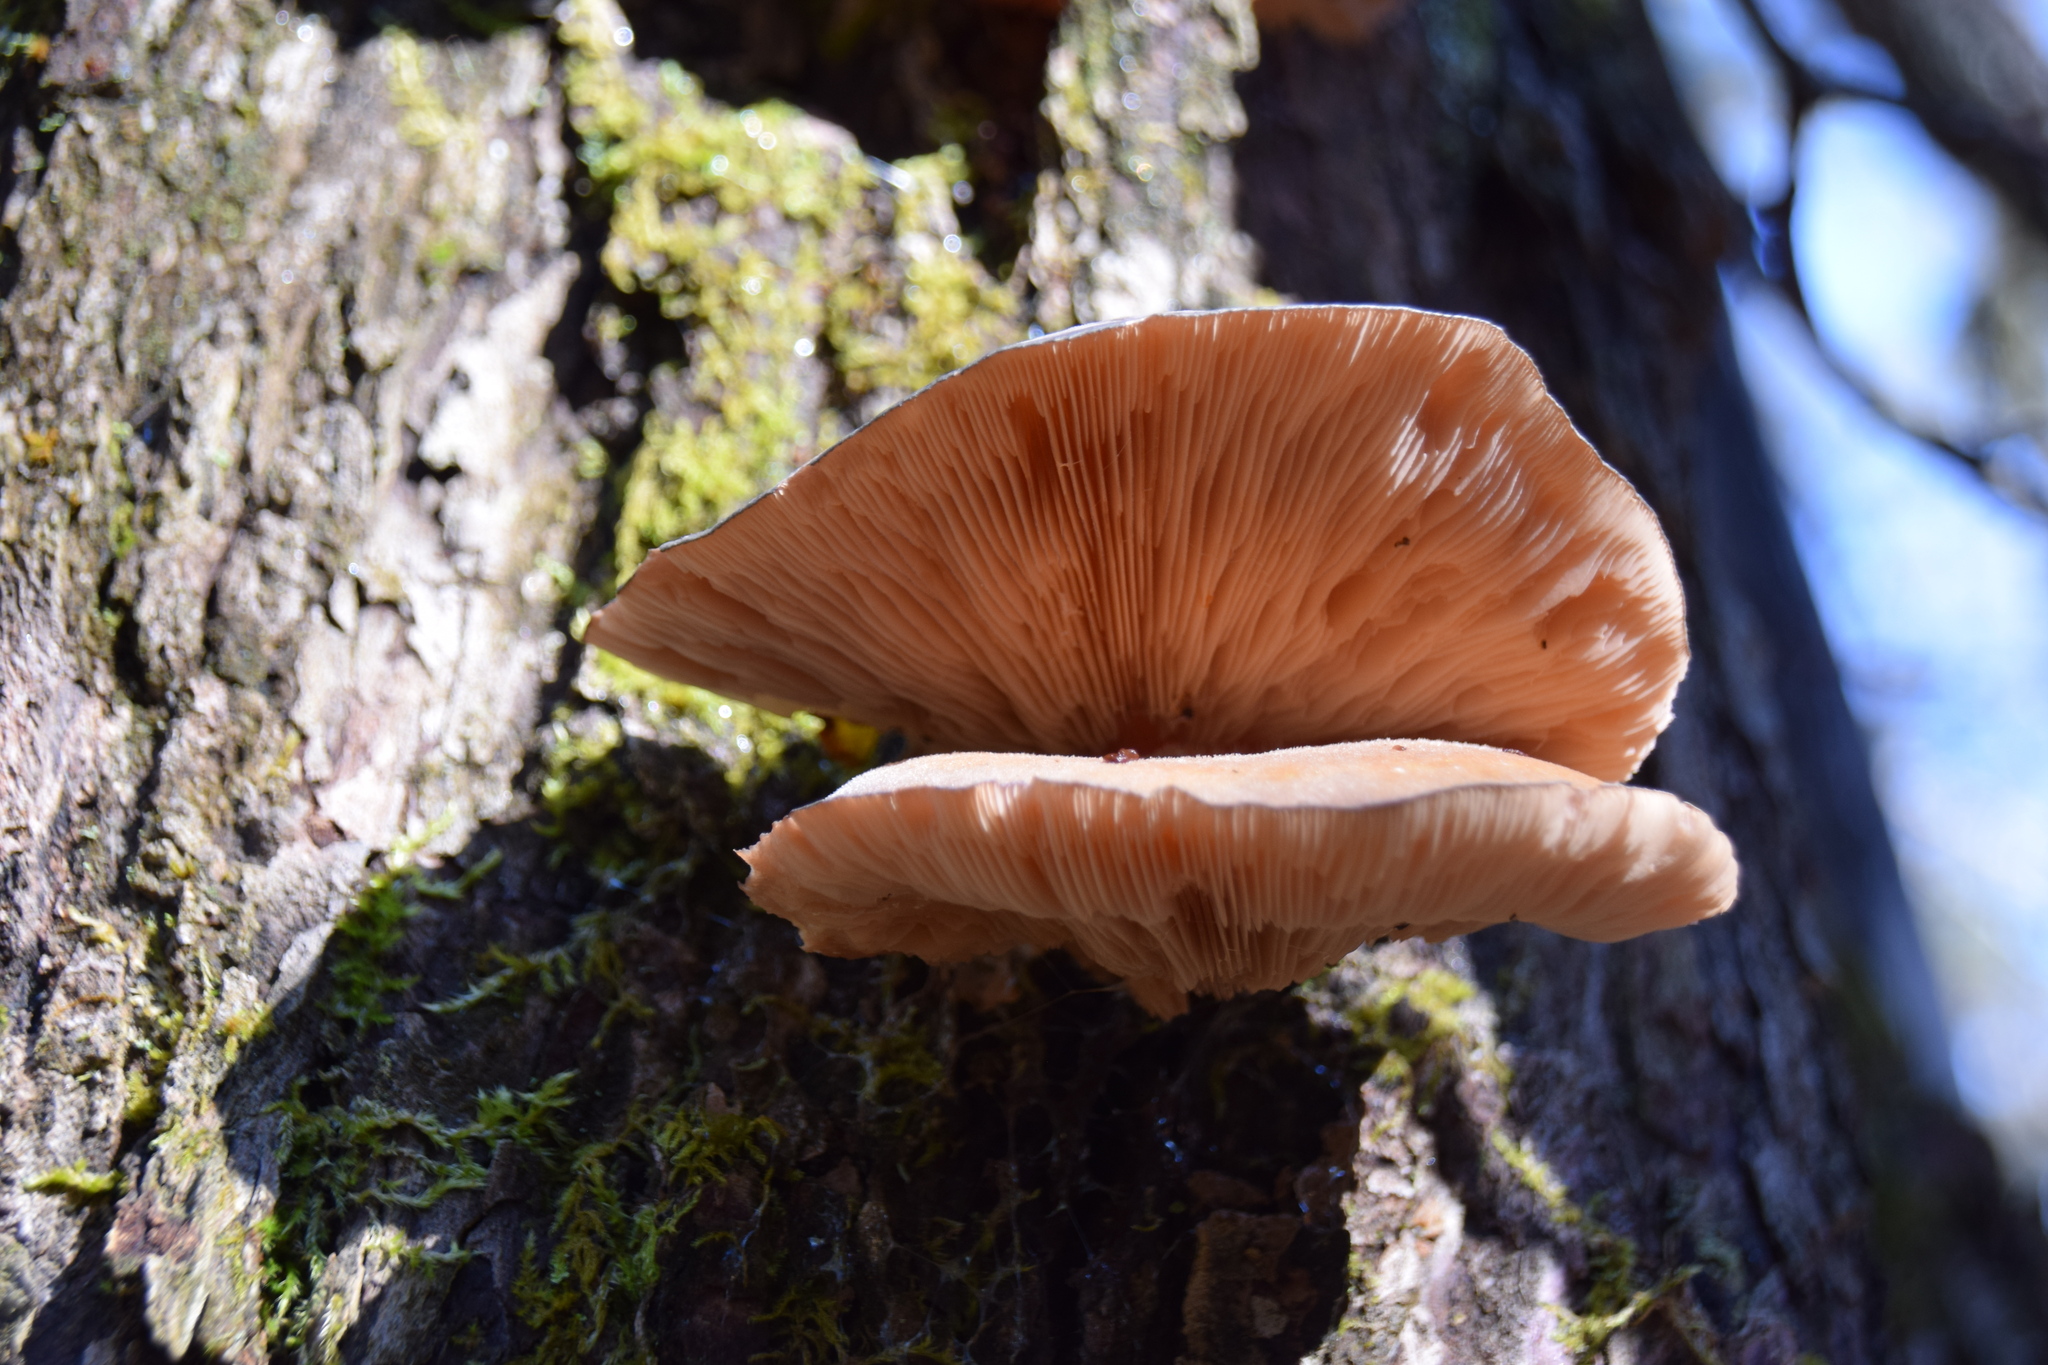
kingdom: Fungi
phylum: Basidiomycota
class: Agaricomycetes
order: Agaricales
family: Sarcomyxaceae
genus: Sarcomyxa
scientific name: Sarcomyxa serotina
